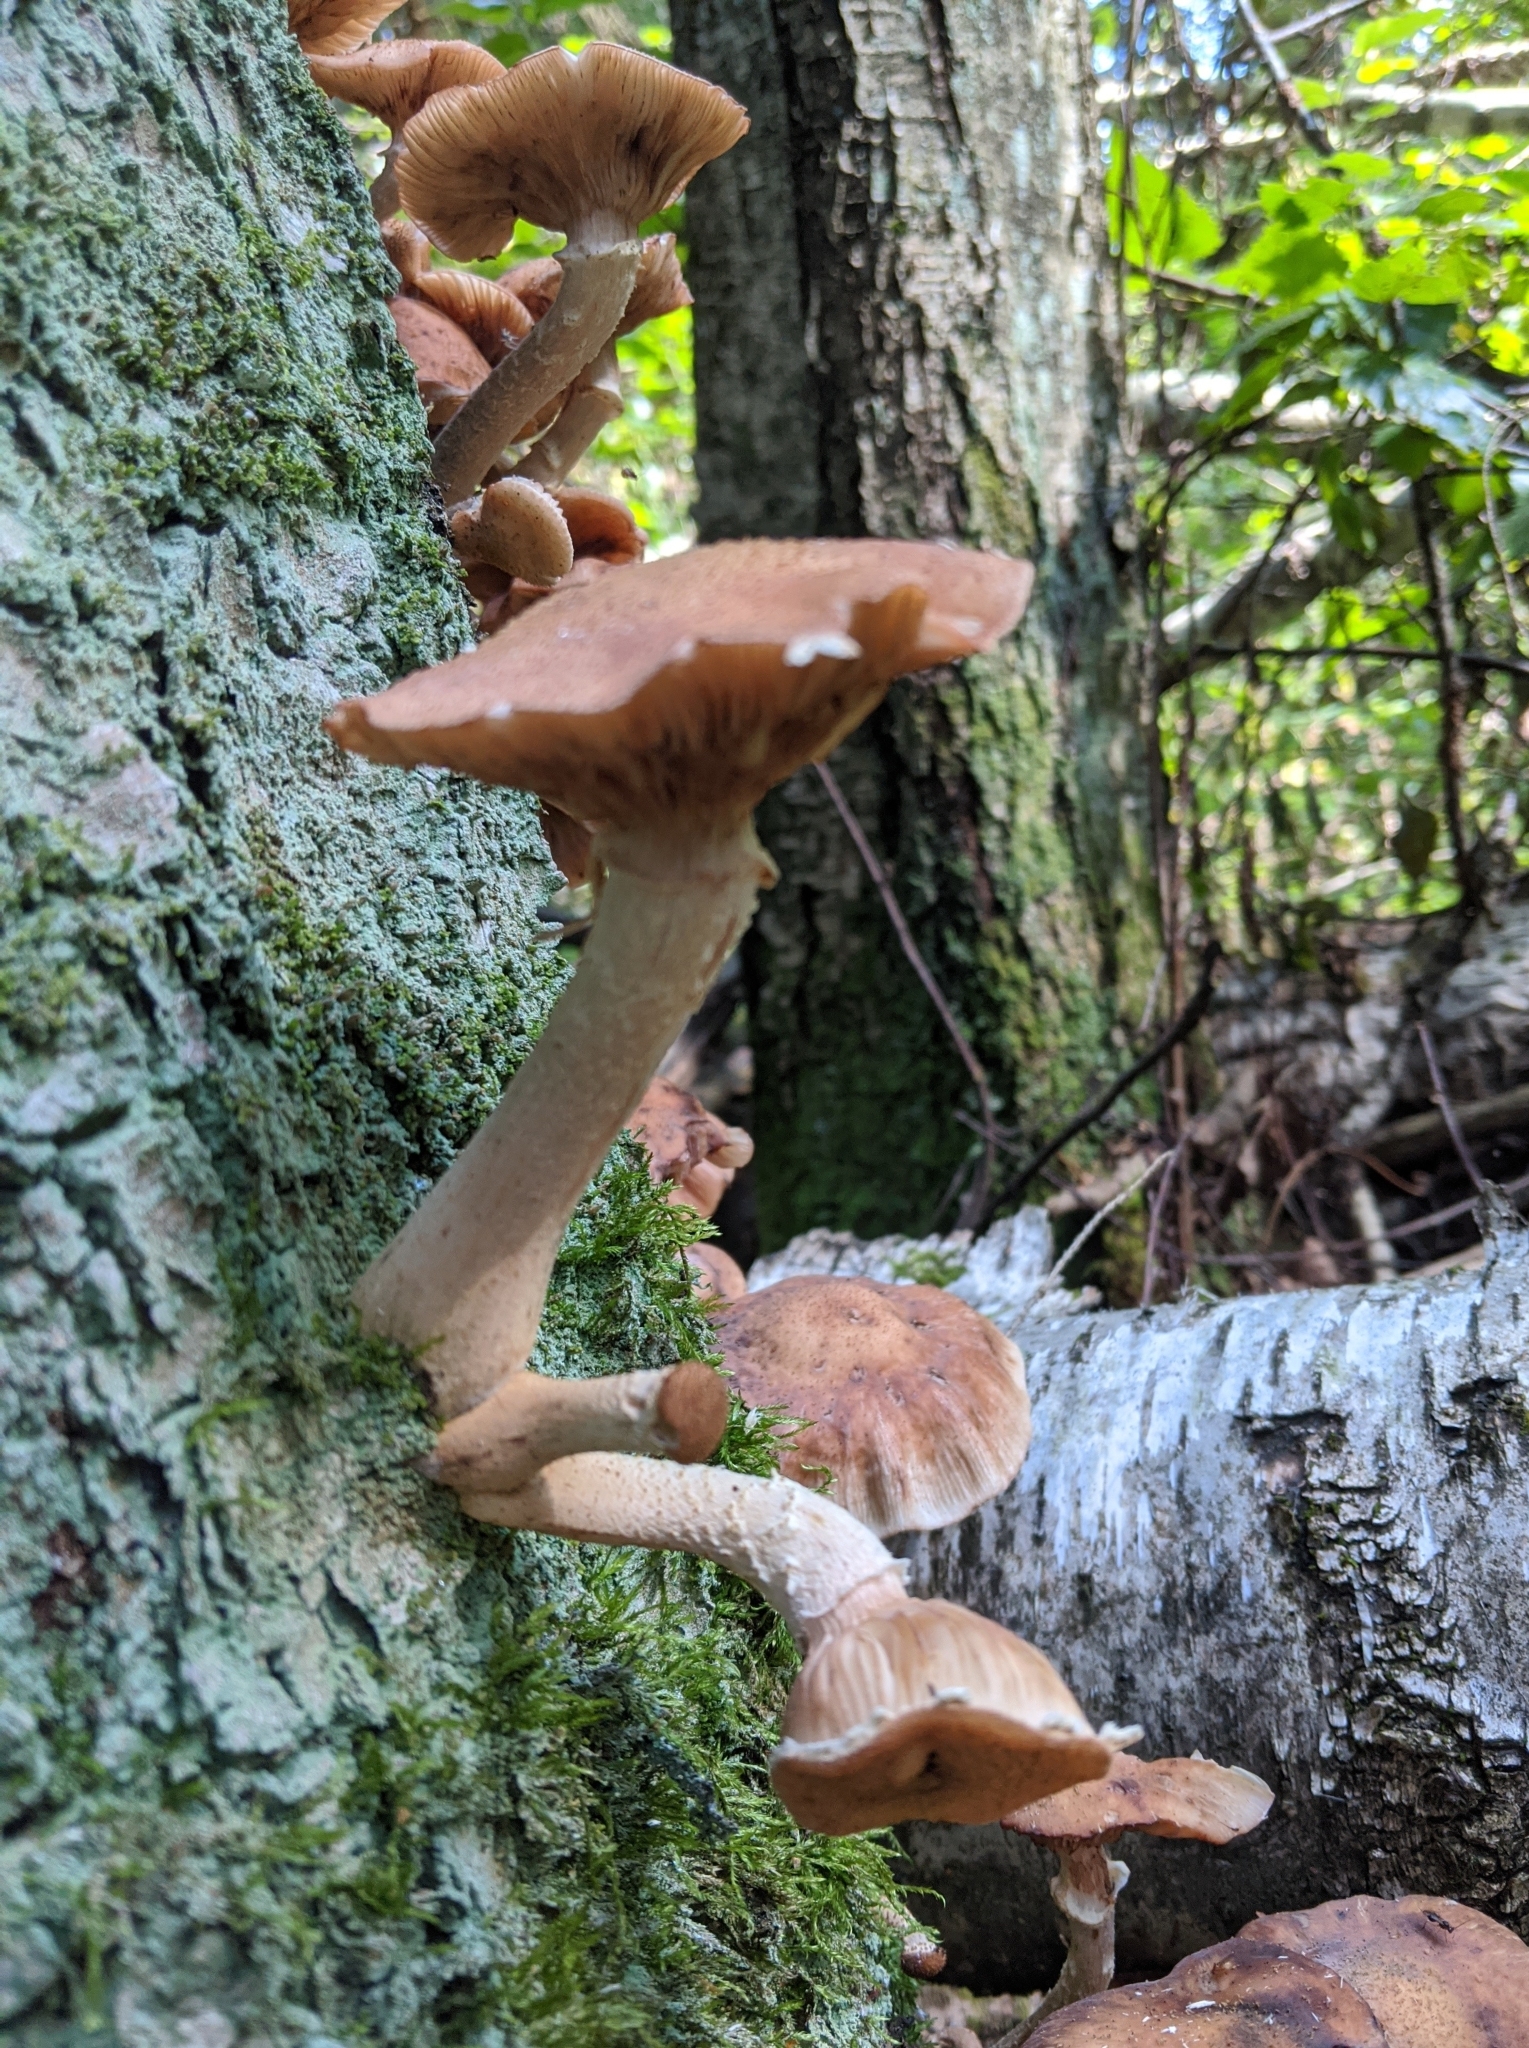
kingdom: Fungi
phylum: Basidiomycota
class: Agaricomycetes
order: Agaricales
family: Physalacriaceae
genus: Armillaria
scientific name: Armillaria borealis
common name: Northern honey fungus
